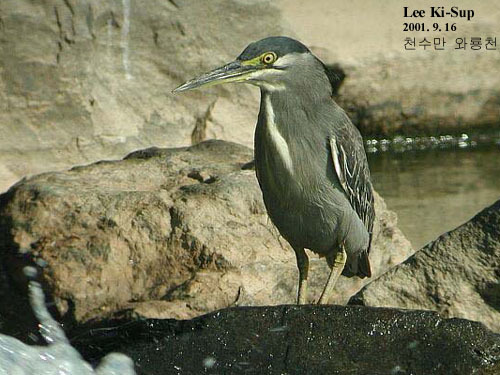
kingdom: Animalia
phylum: Chordata
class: Aves
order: Pelecaniformes
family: Ardeidae
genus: Butorides
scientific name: Butorides striata
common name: Striated heron
